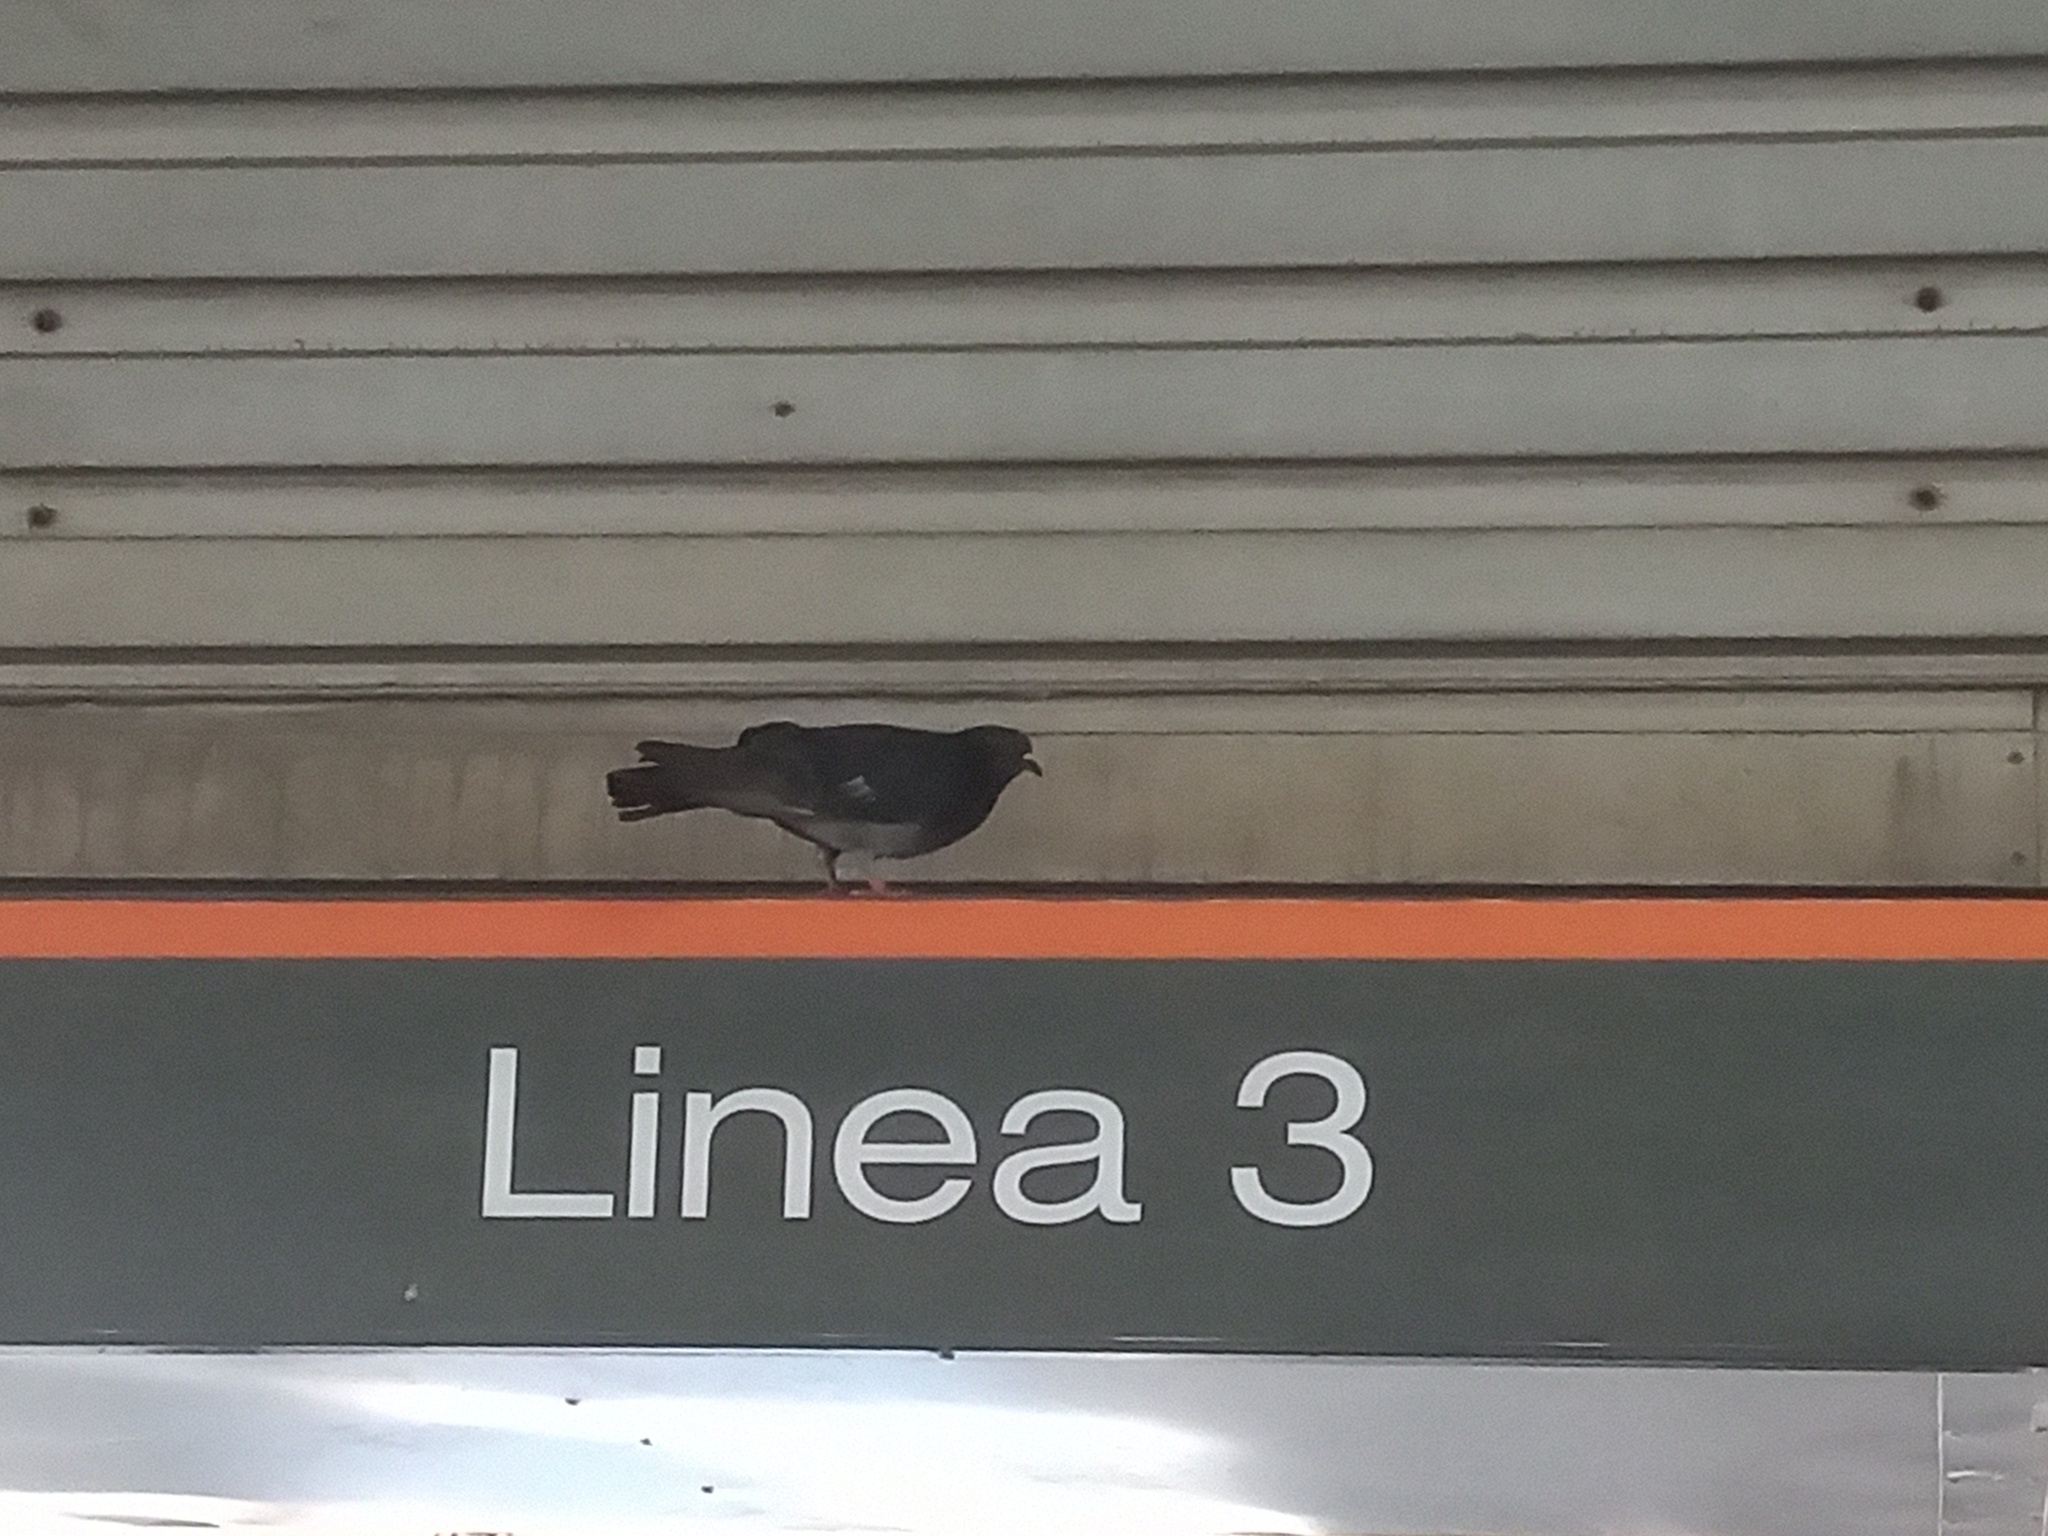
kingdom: Animalia
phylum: Chordata
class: Aves
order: Columbiformes
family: Columbidae
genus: Columba
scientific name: Columba livia
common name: Rock pigeon
